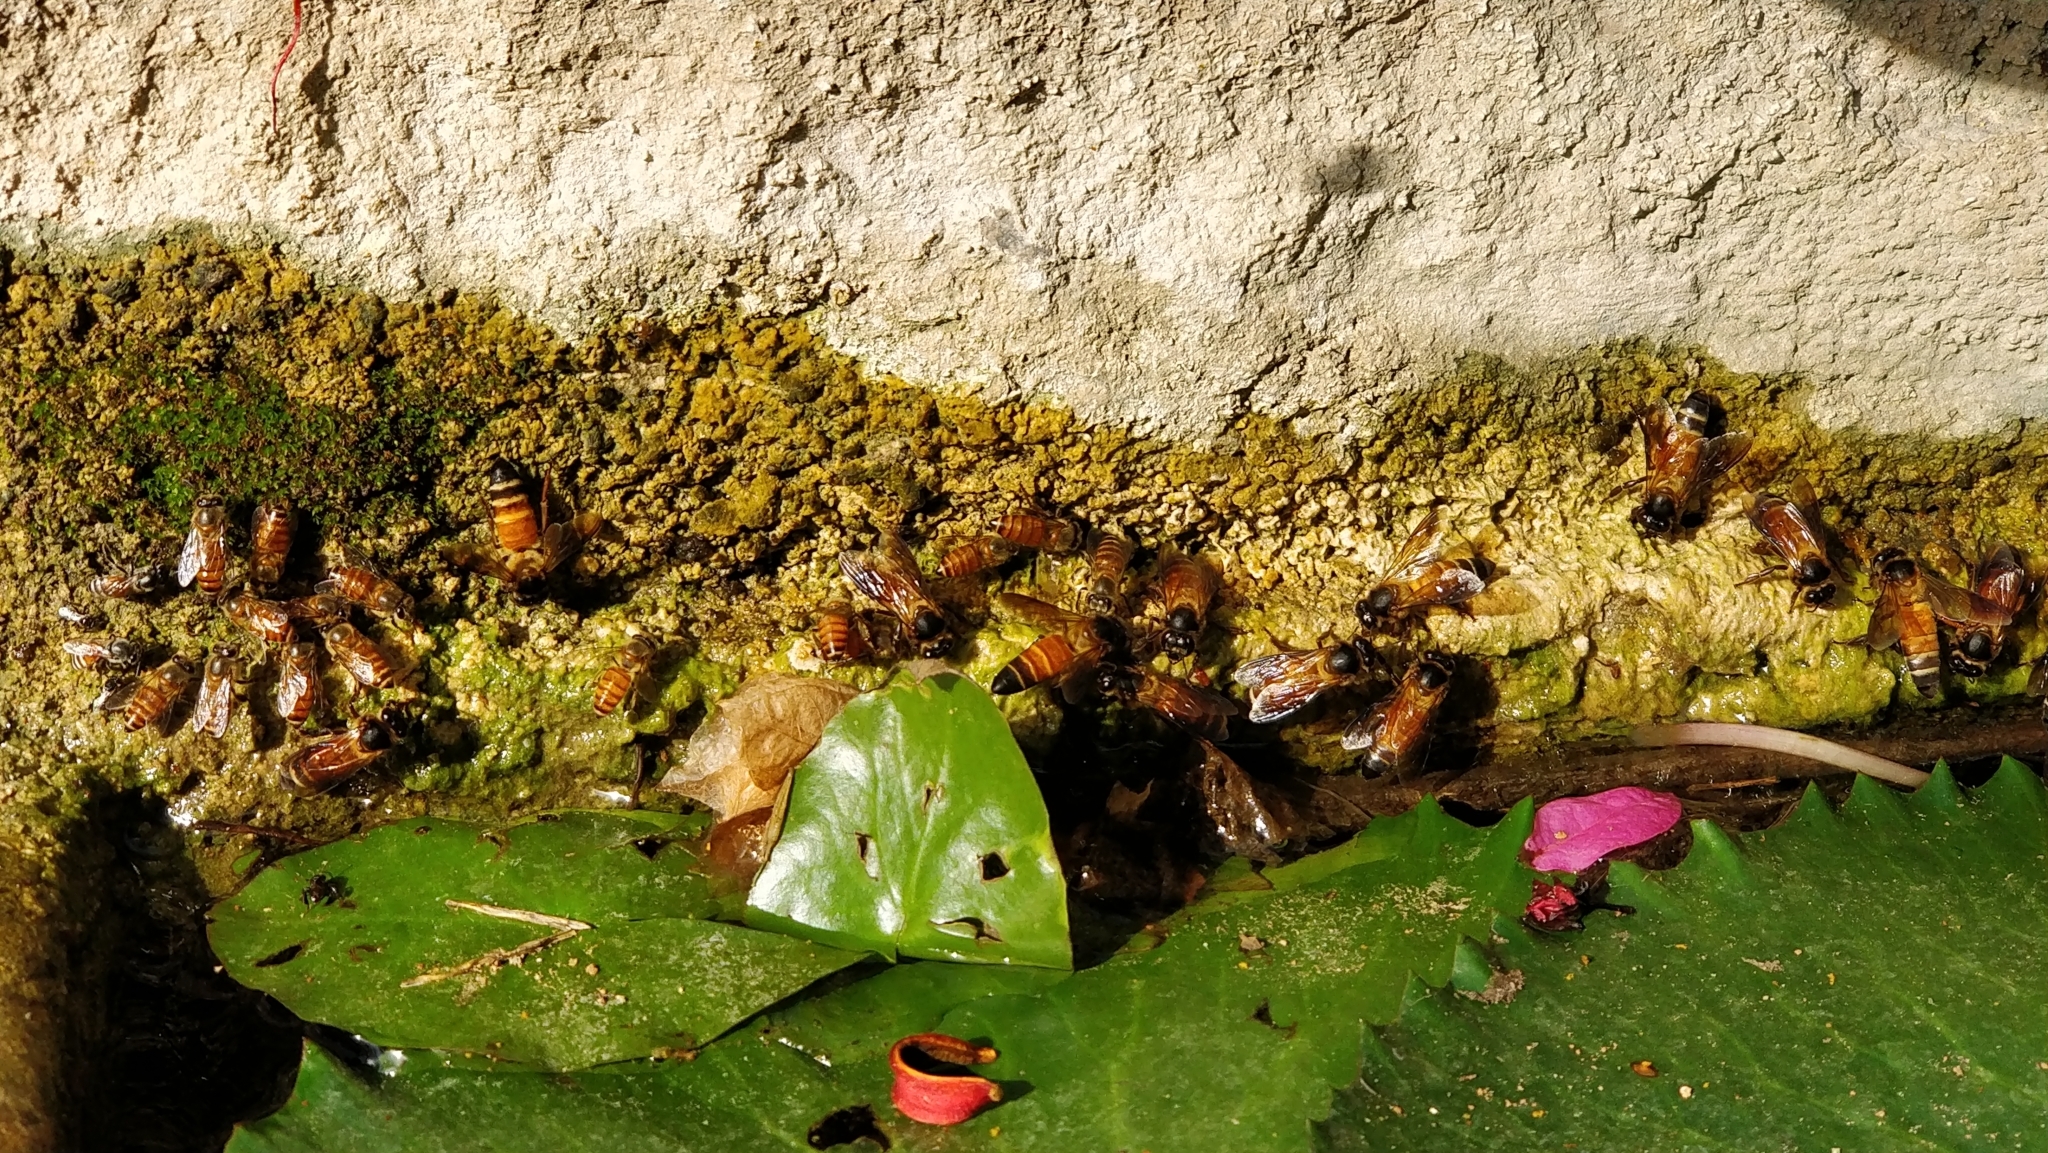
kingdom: Animalia
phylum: Arthropoda
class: Insecta
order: Hymenoptera
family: Apidae
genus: Apis
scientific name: Apis cerana
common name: Honey bee
